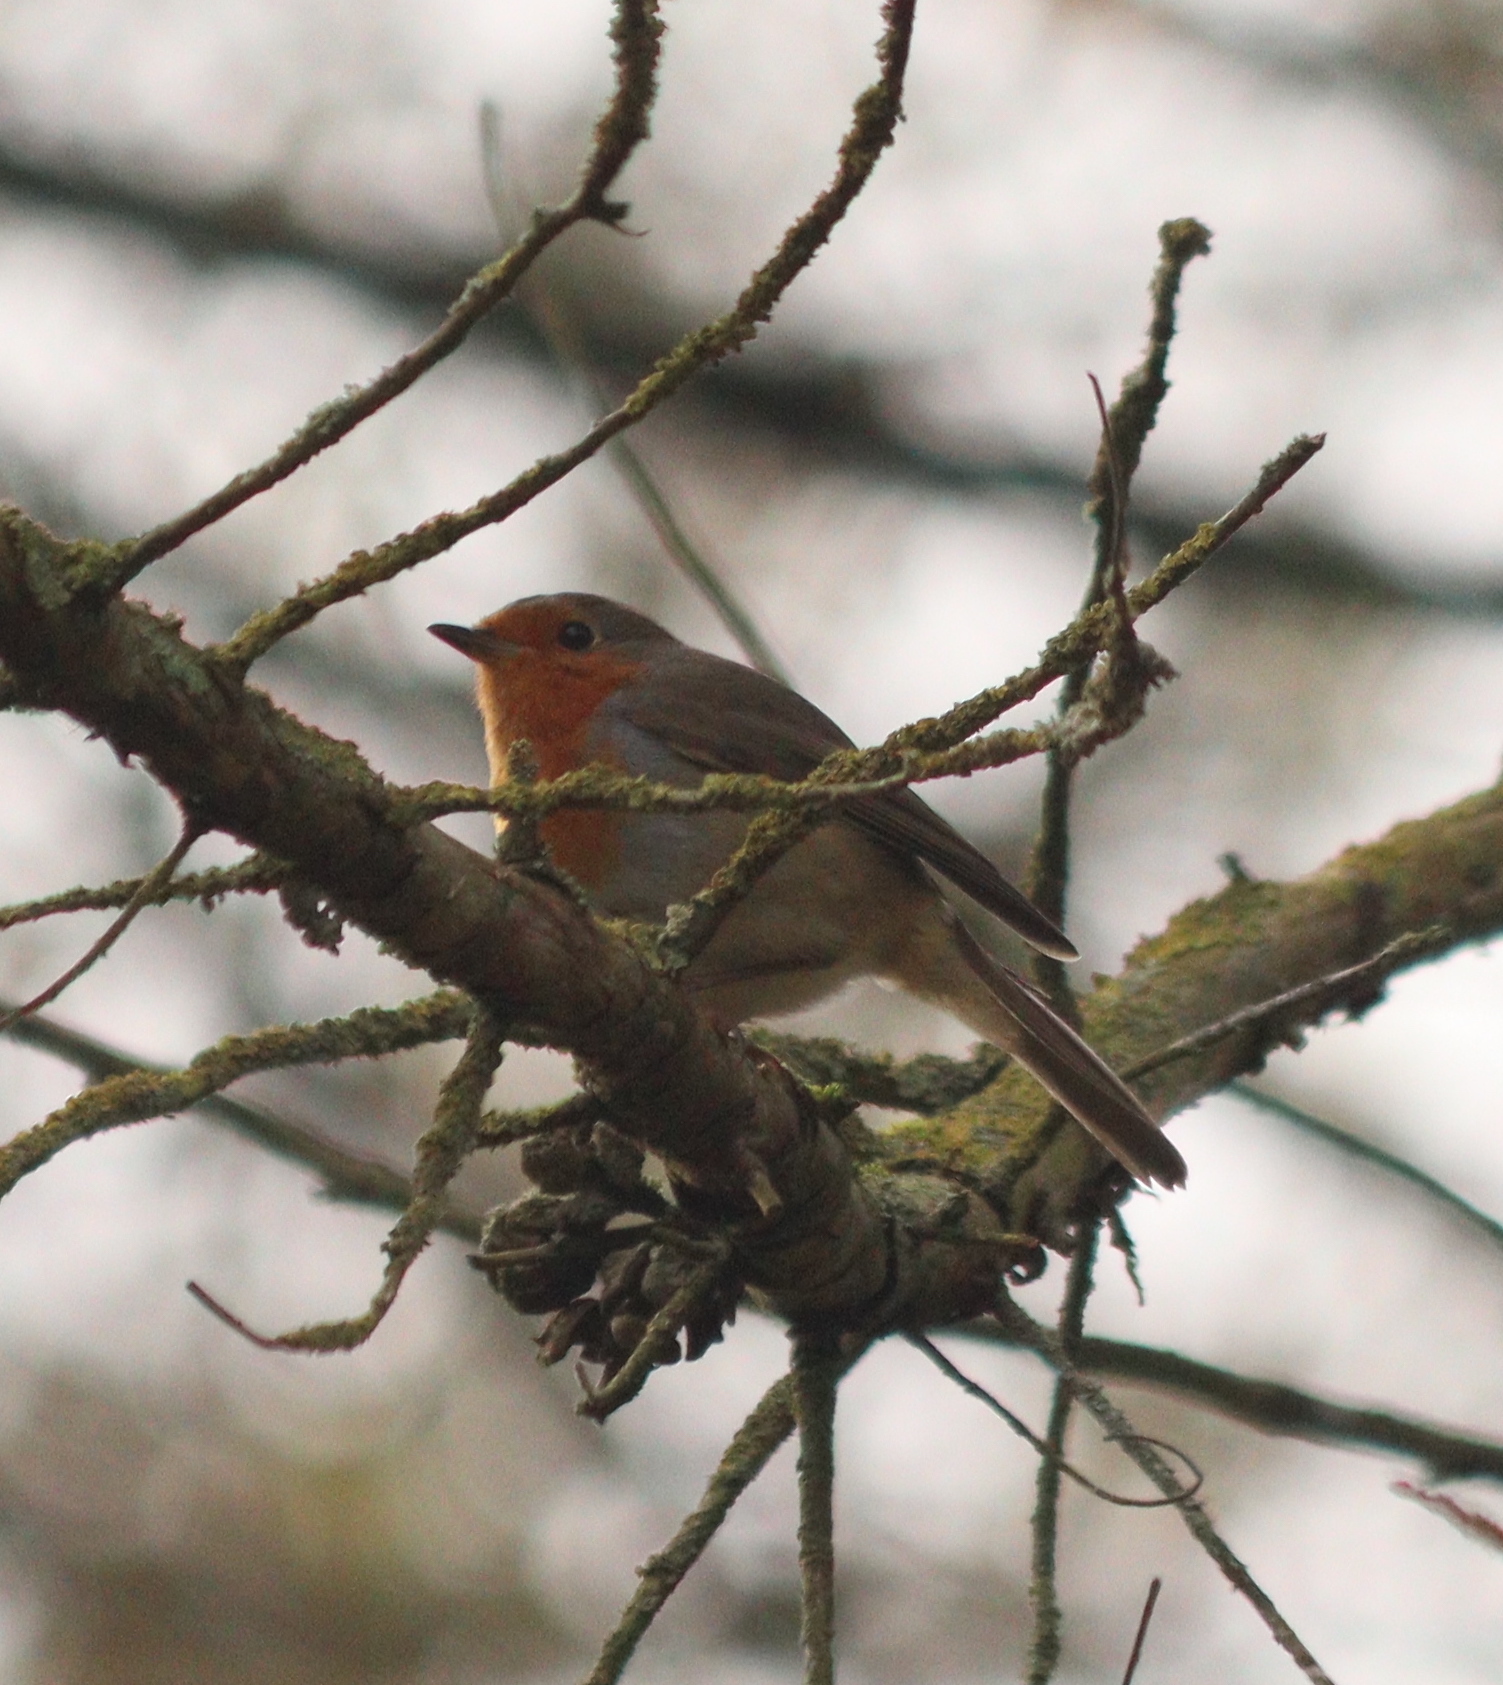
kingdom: Animalia
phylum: Chordata
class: Aves
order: Passeriformes
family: Muscicapidae
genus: Erithacus
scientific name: Erithacus rubecula
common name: European robin
